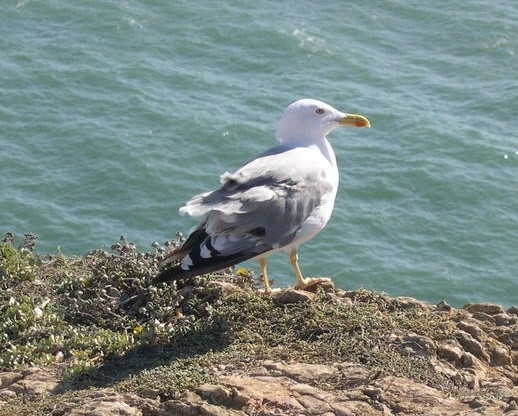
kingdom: Animalia
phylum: Chordata
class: Aves
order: Charadriiformes
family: Laridae
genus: Larus
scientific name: Larus michahellis
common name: Yellow-legged gull
